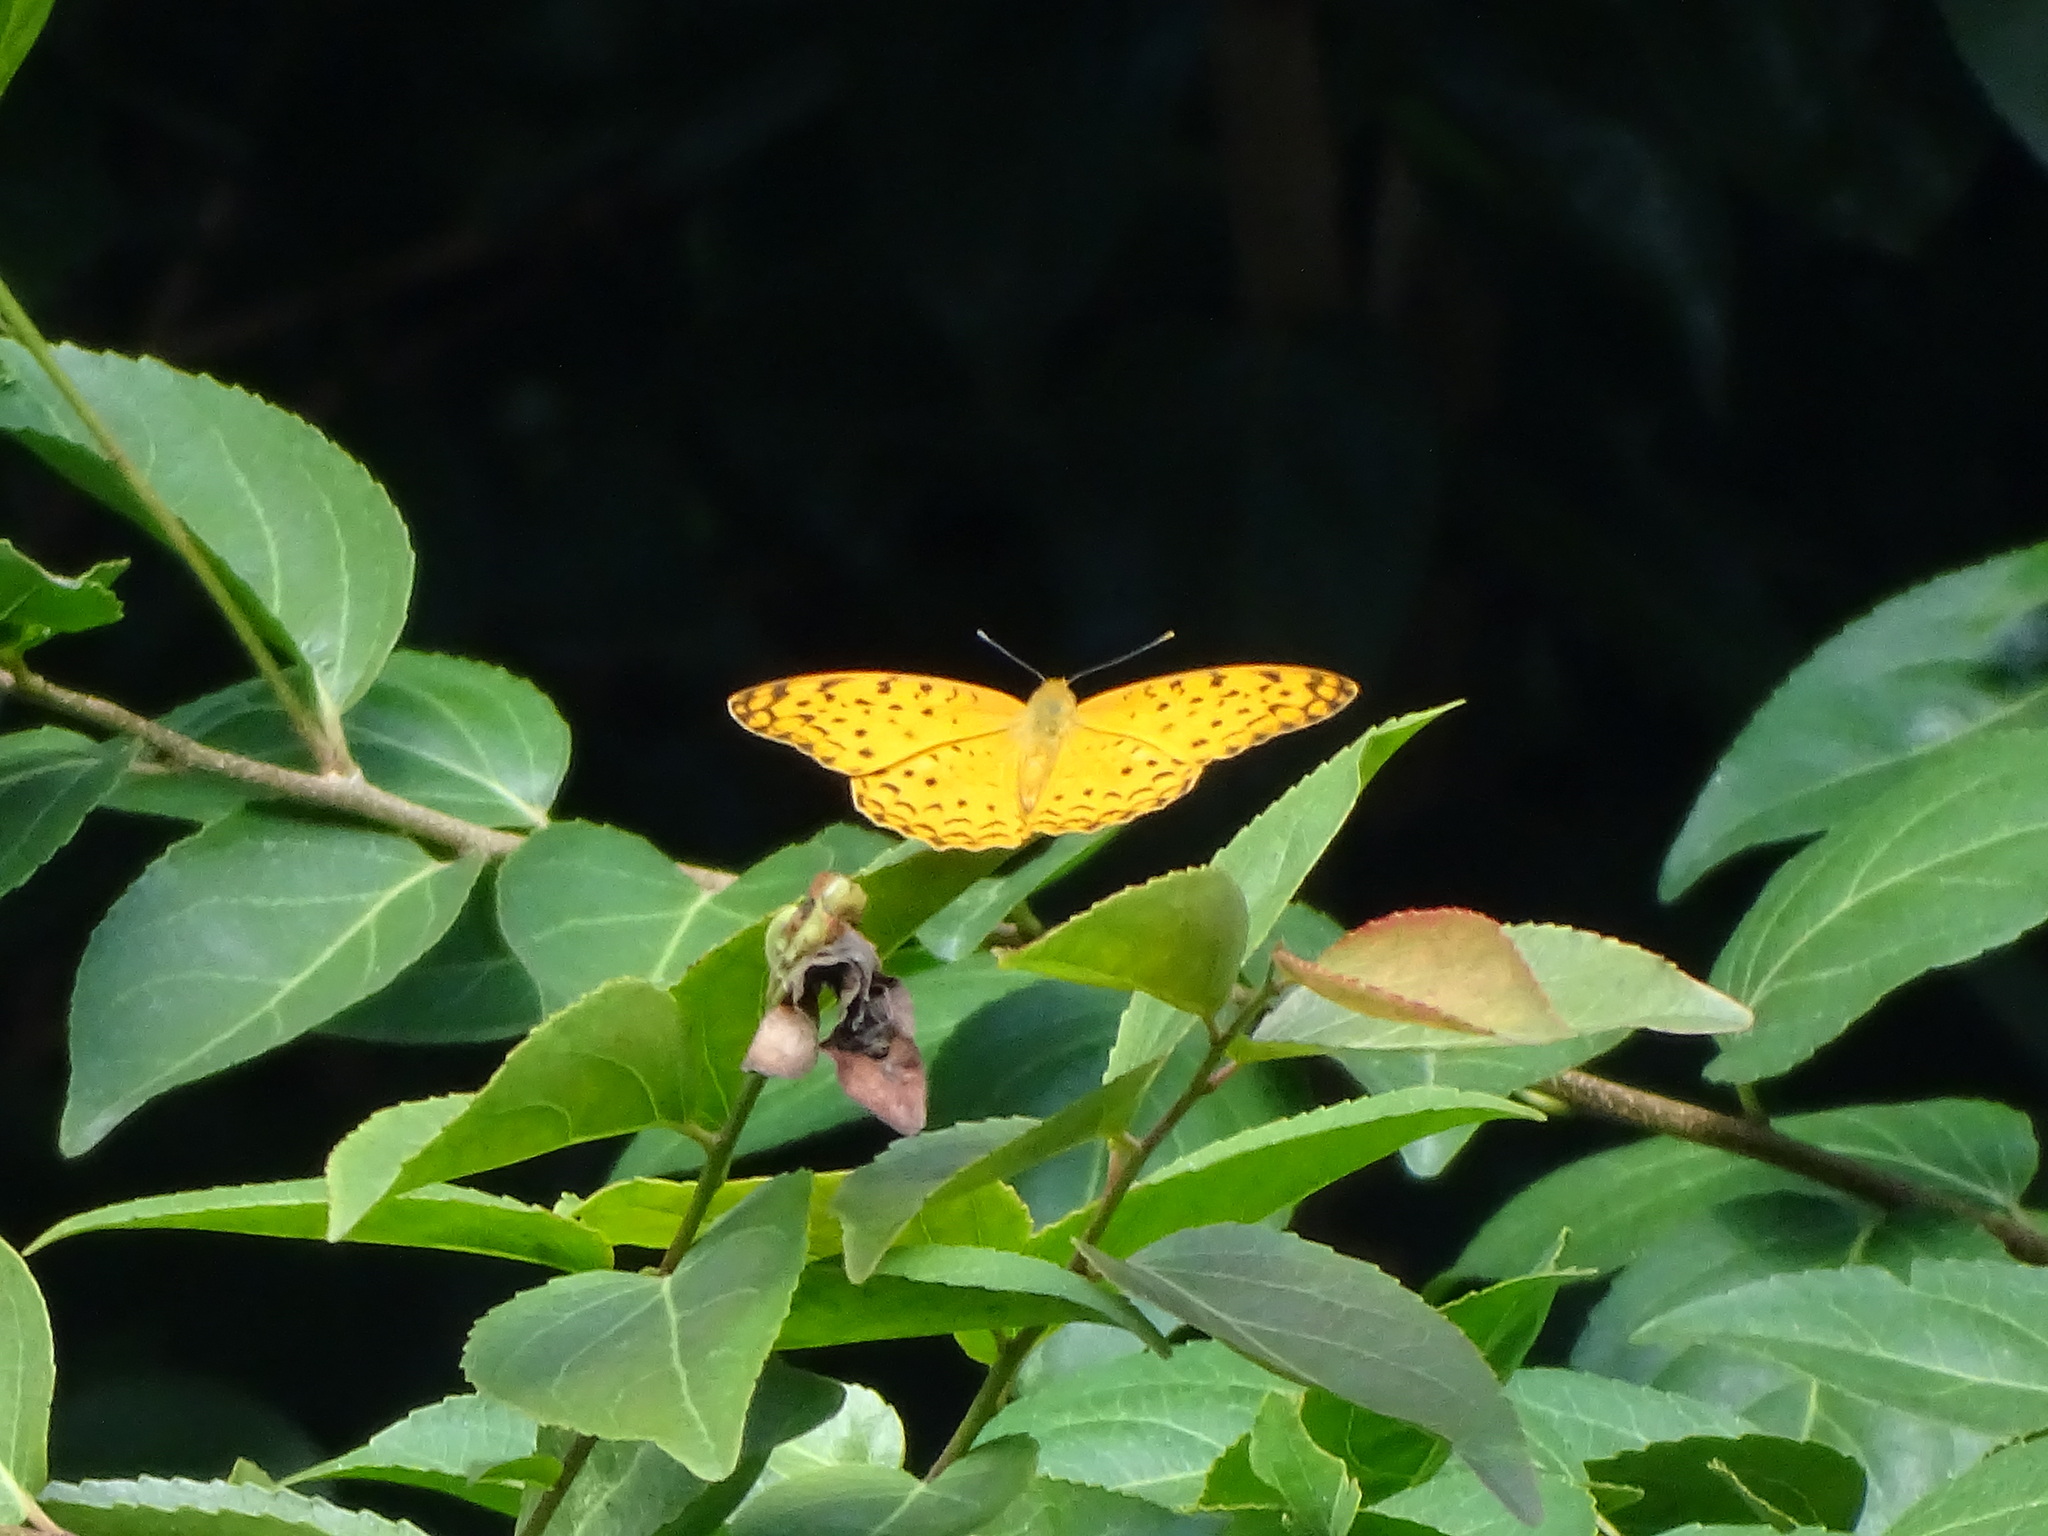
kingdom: Animalia
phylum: Arthropoda
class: Insecta
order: Lepidoptera
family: Nymphalidae
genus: Phalanta
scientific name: Phalanta phalantha
